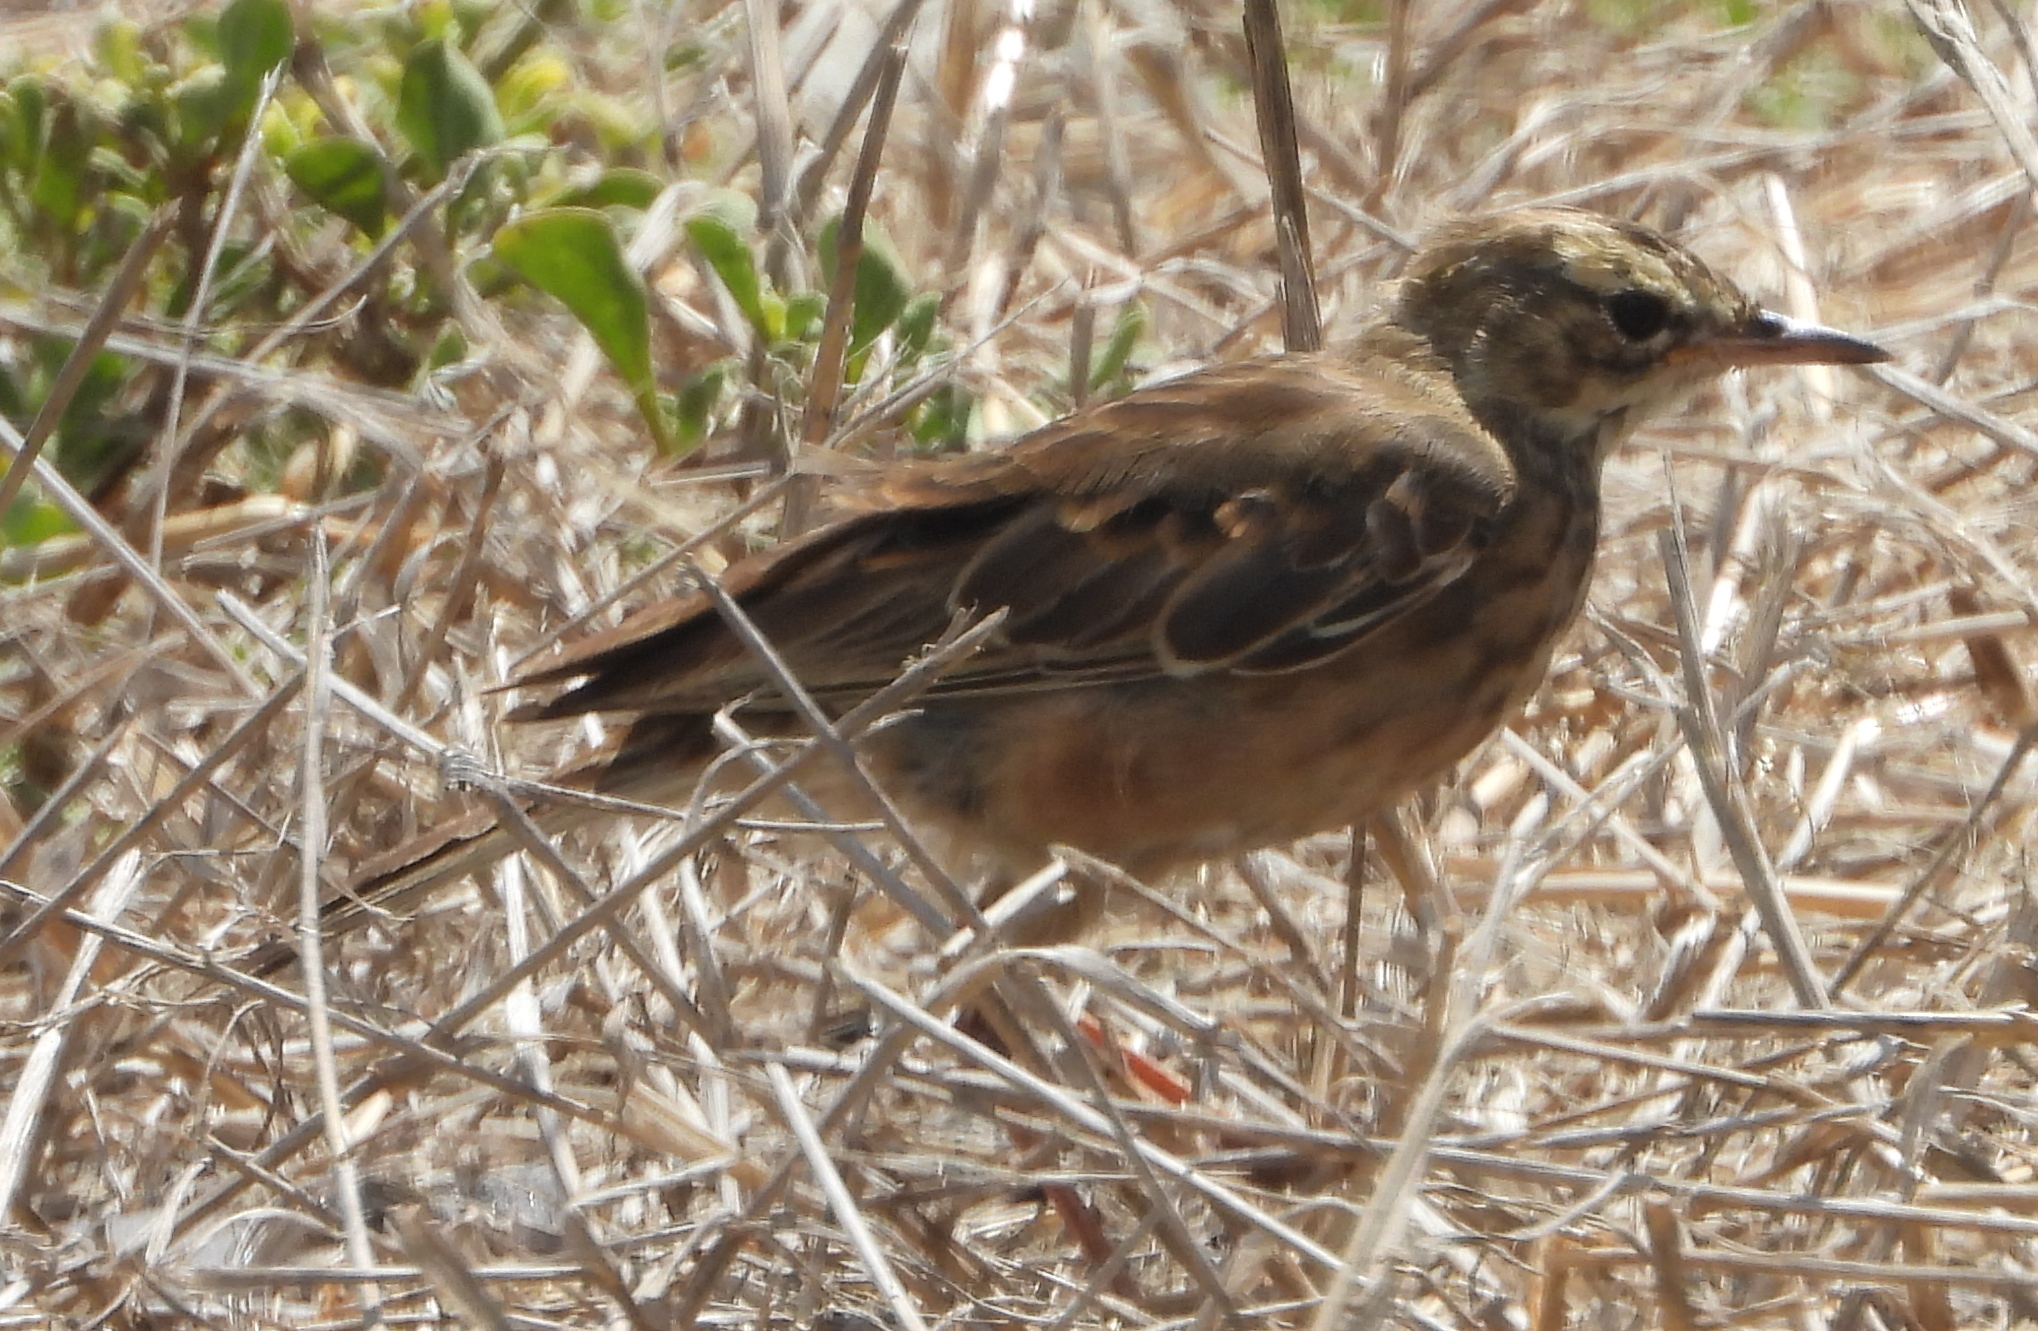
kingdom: Animalia
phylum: Chordata
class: Aves
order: Passeriformes
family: Motacillidae
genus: Anthus
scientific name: Anthus leucophrys
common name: Plain-backed pipit
